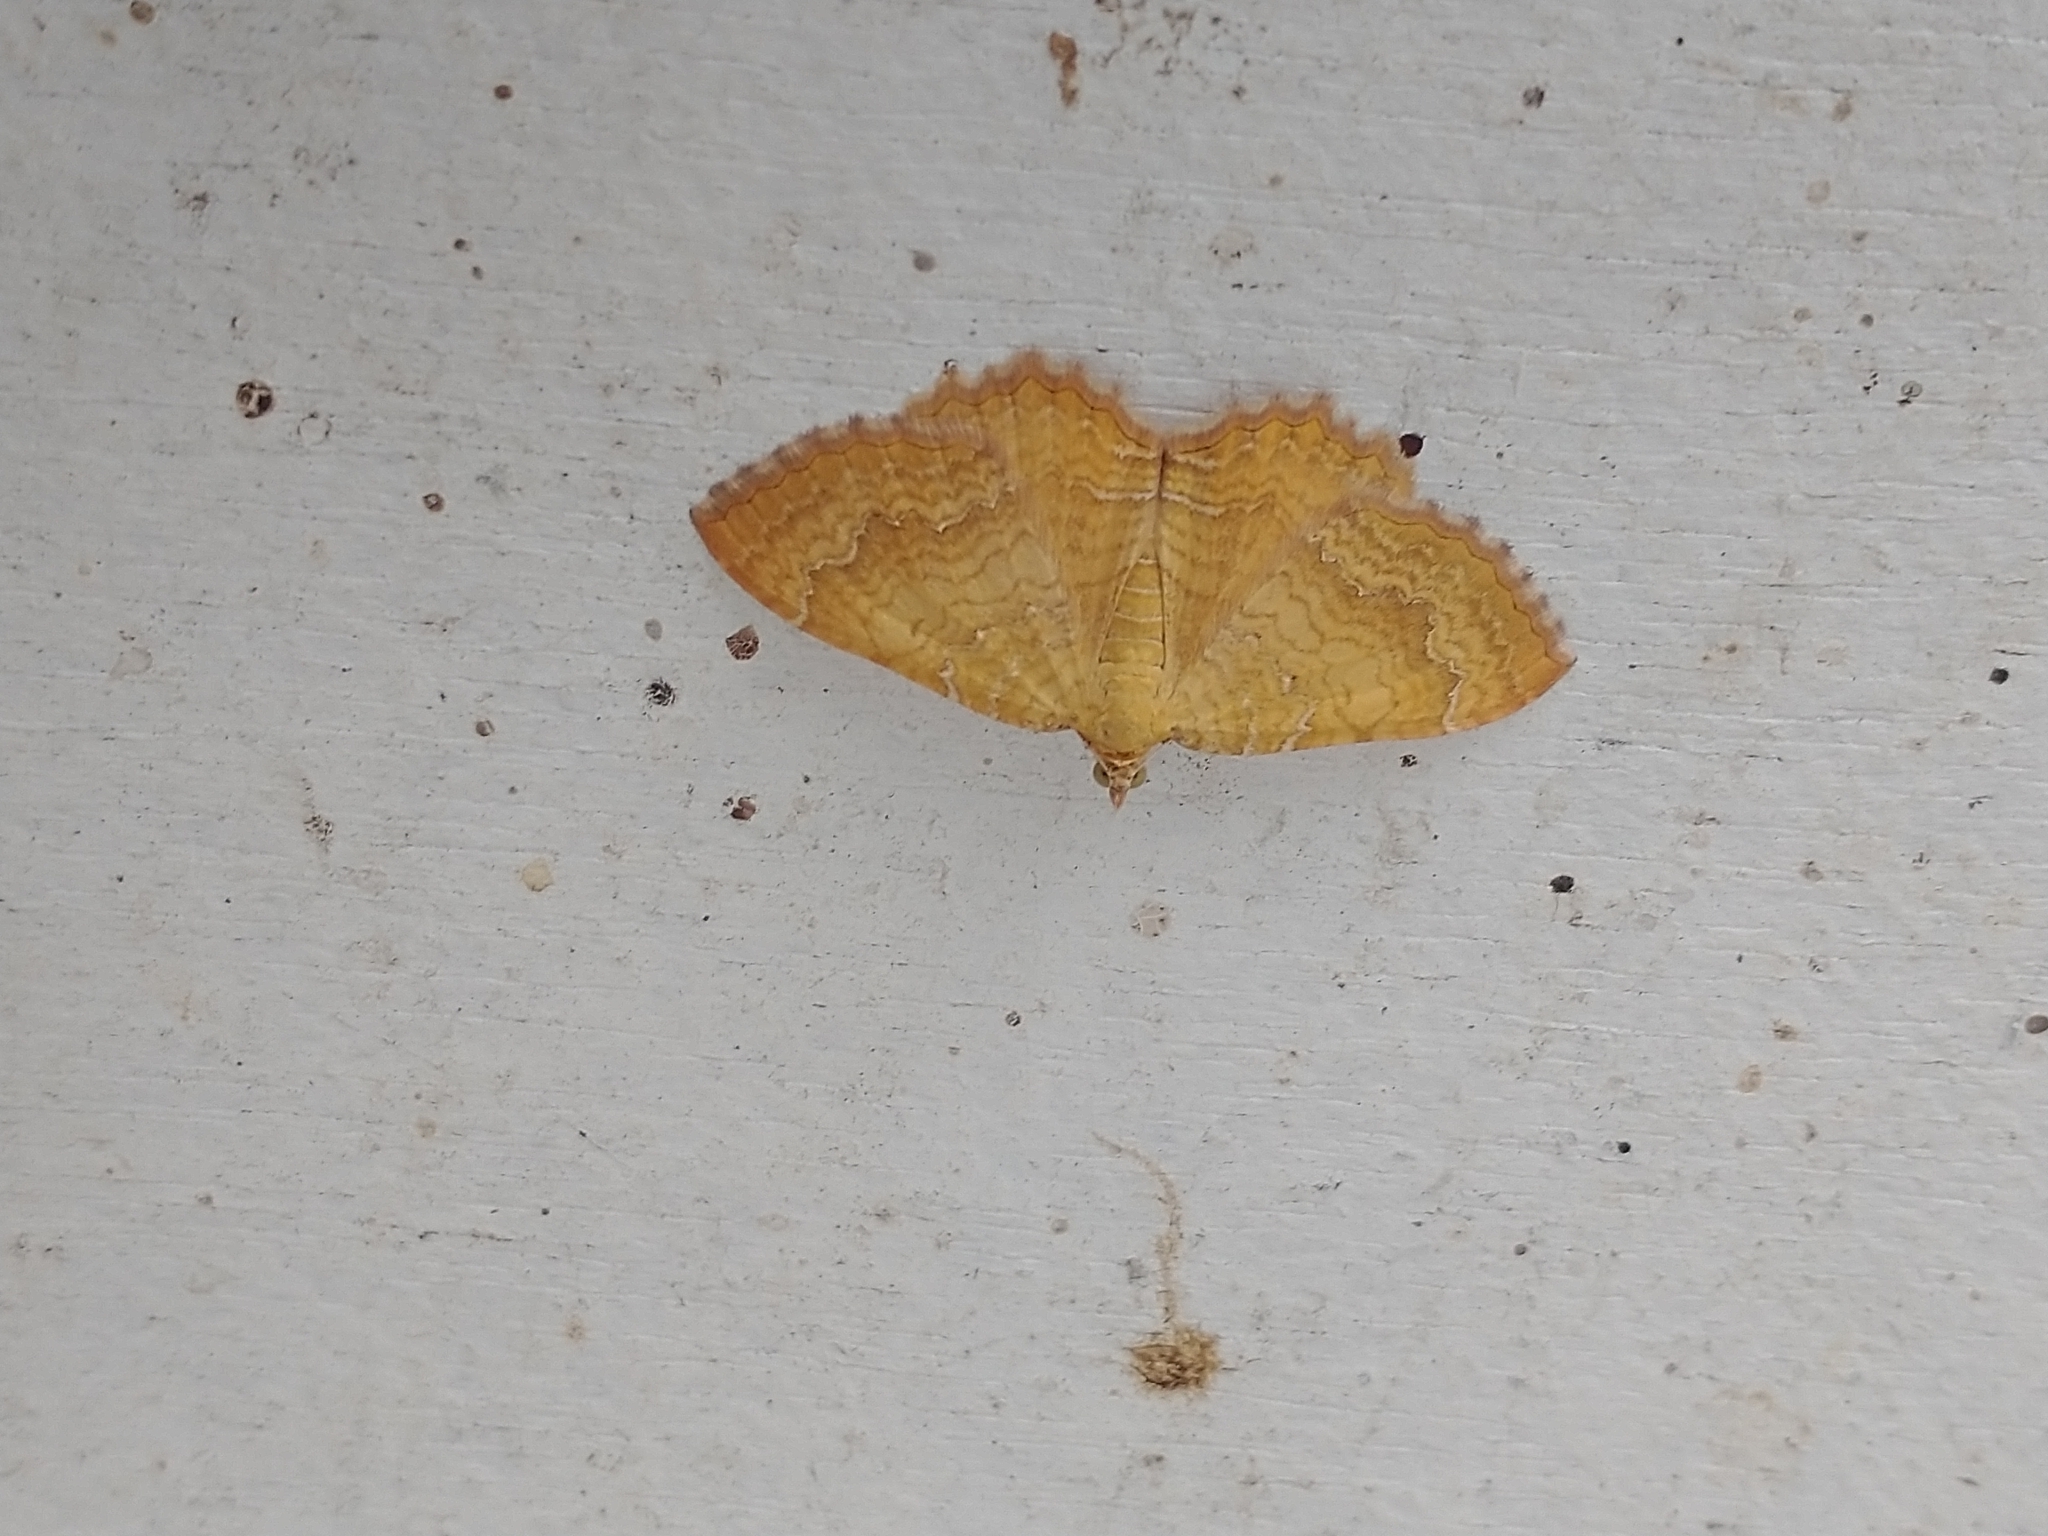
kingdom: Animalia
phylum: Arthropoda
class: Insecta
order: Lepidoptera
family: Geometridae
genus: Camptogramma
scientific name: Camptogramma bilineata
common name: Yellow shell
